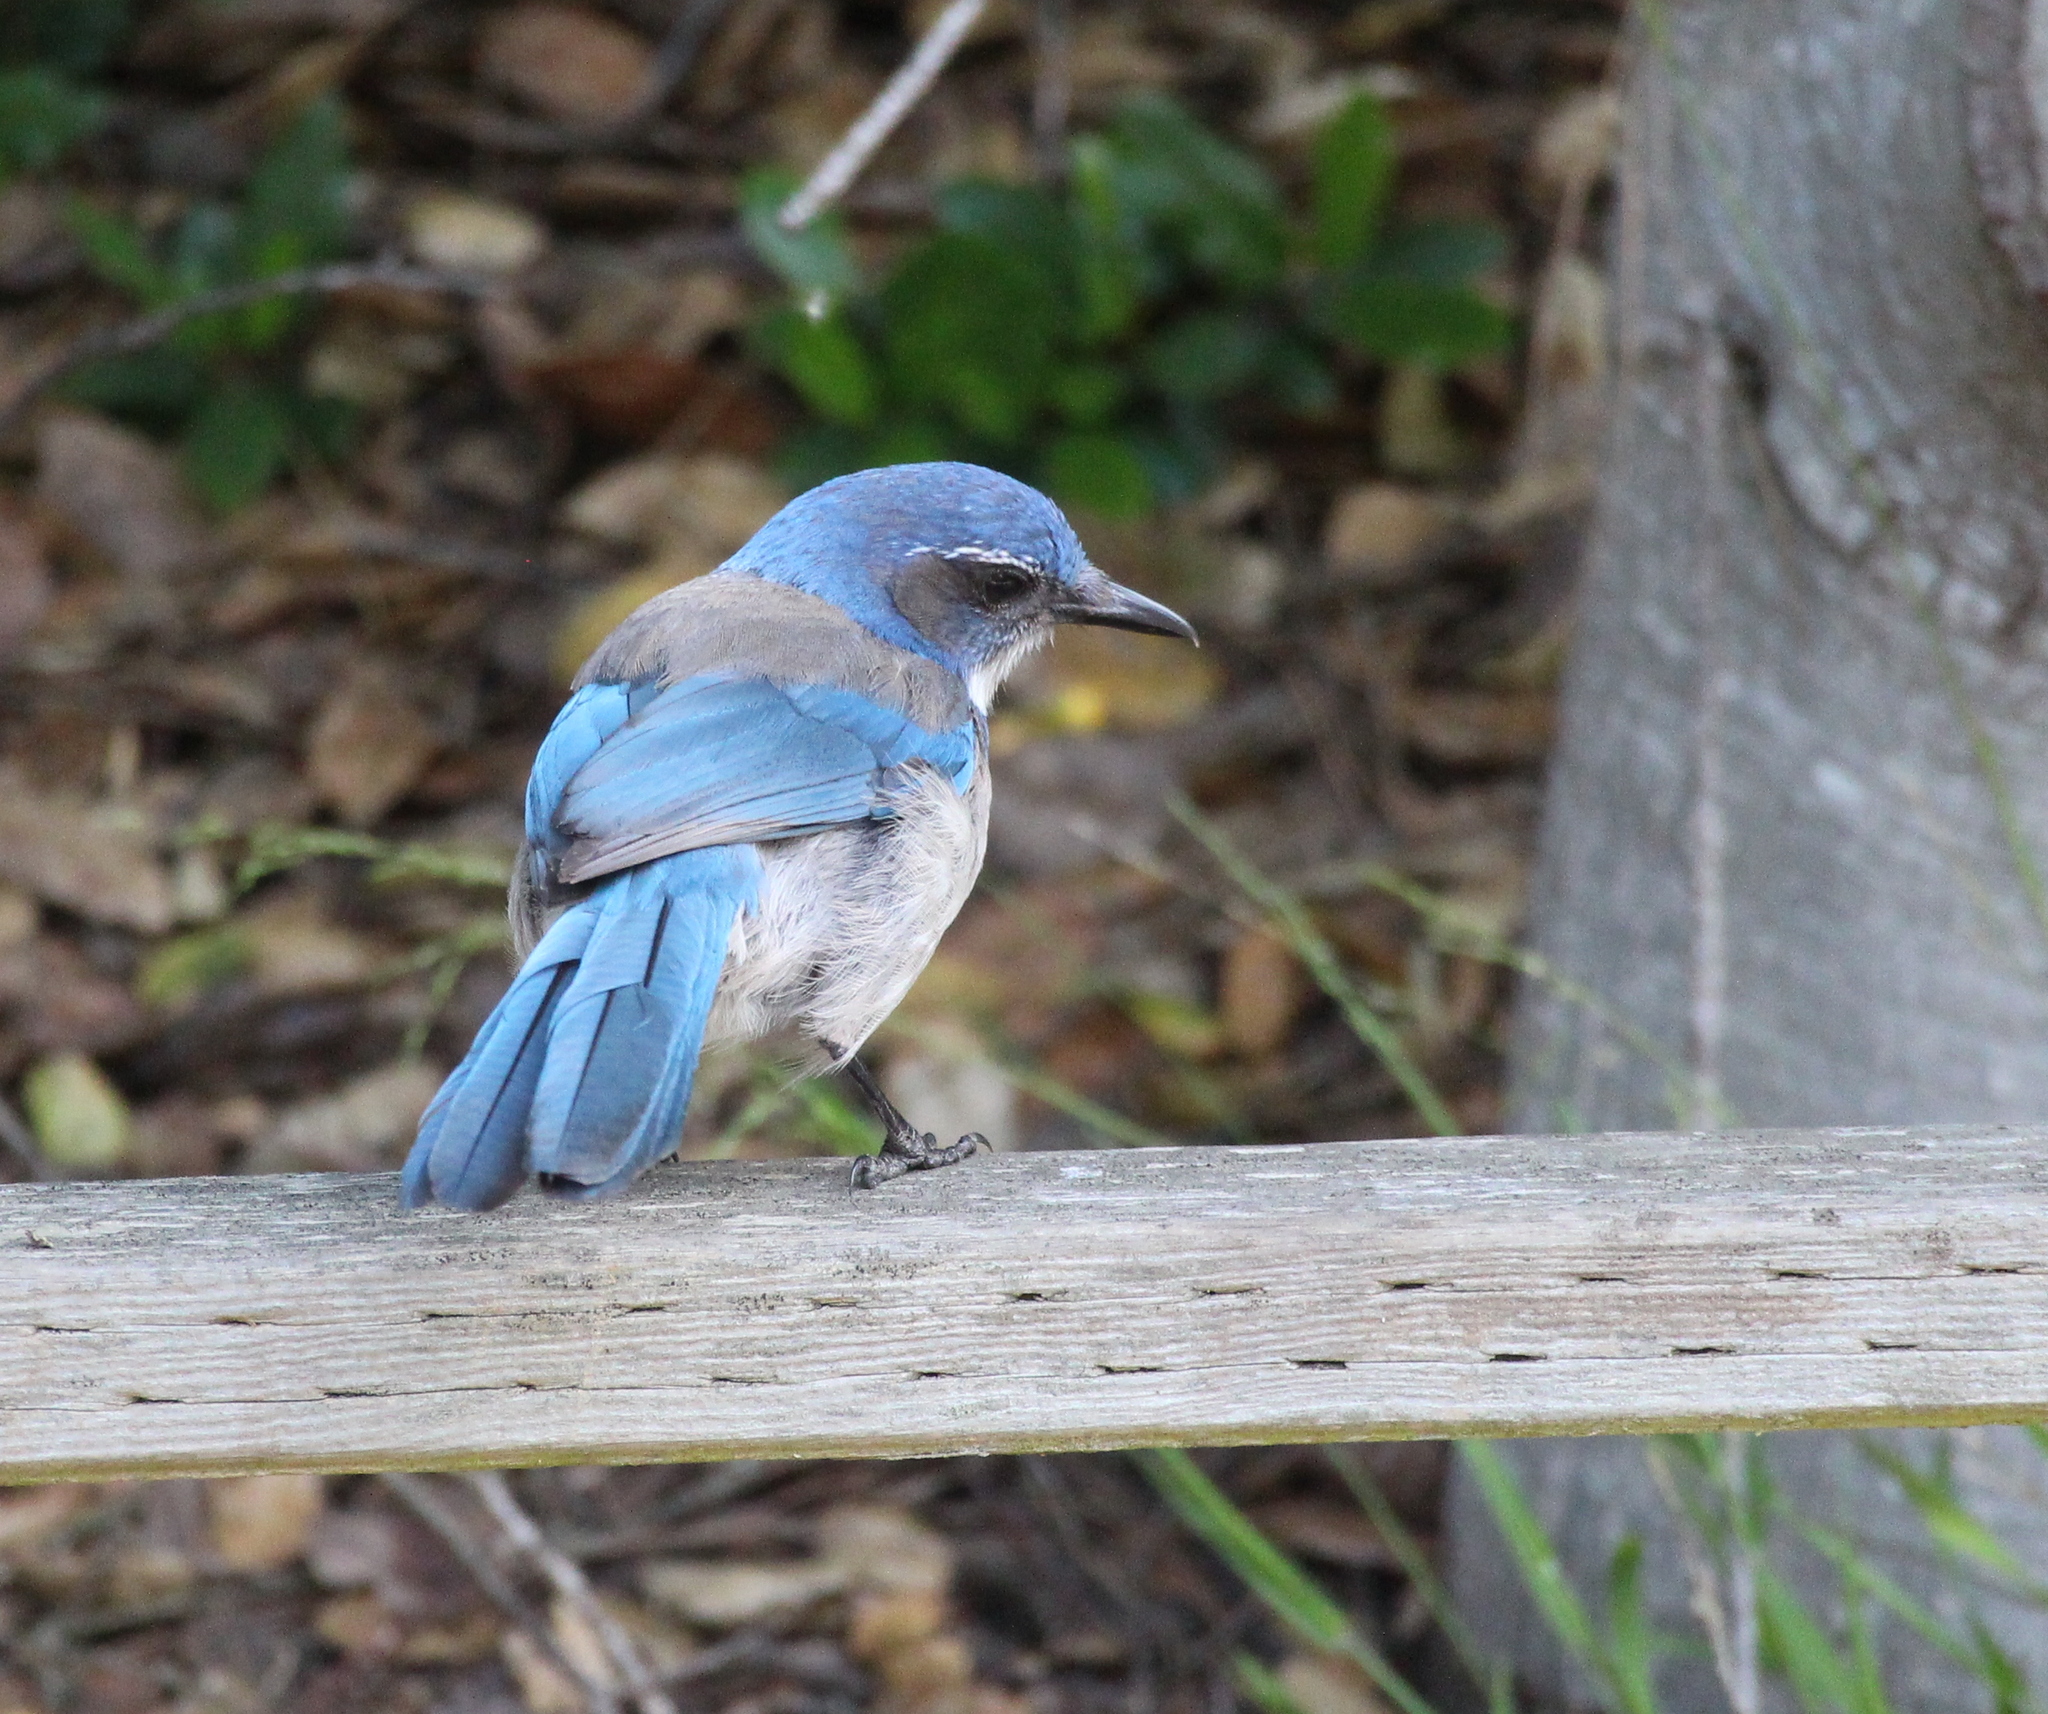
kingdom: Animalia
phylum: Chordata
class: Aves
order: Passeriformes
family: Corvidae
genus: Aphelocoma
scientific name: Aphelocoma californica
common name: California scrub-jay
